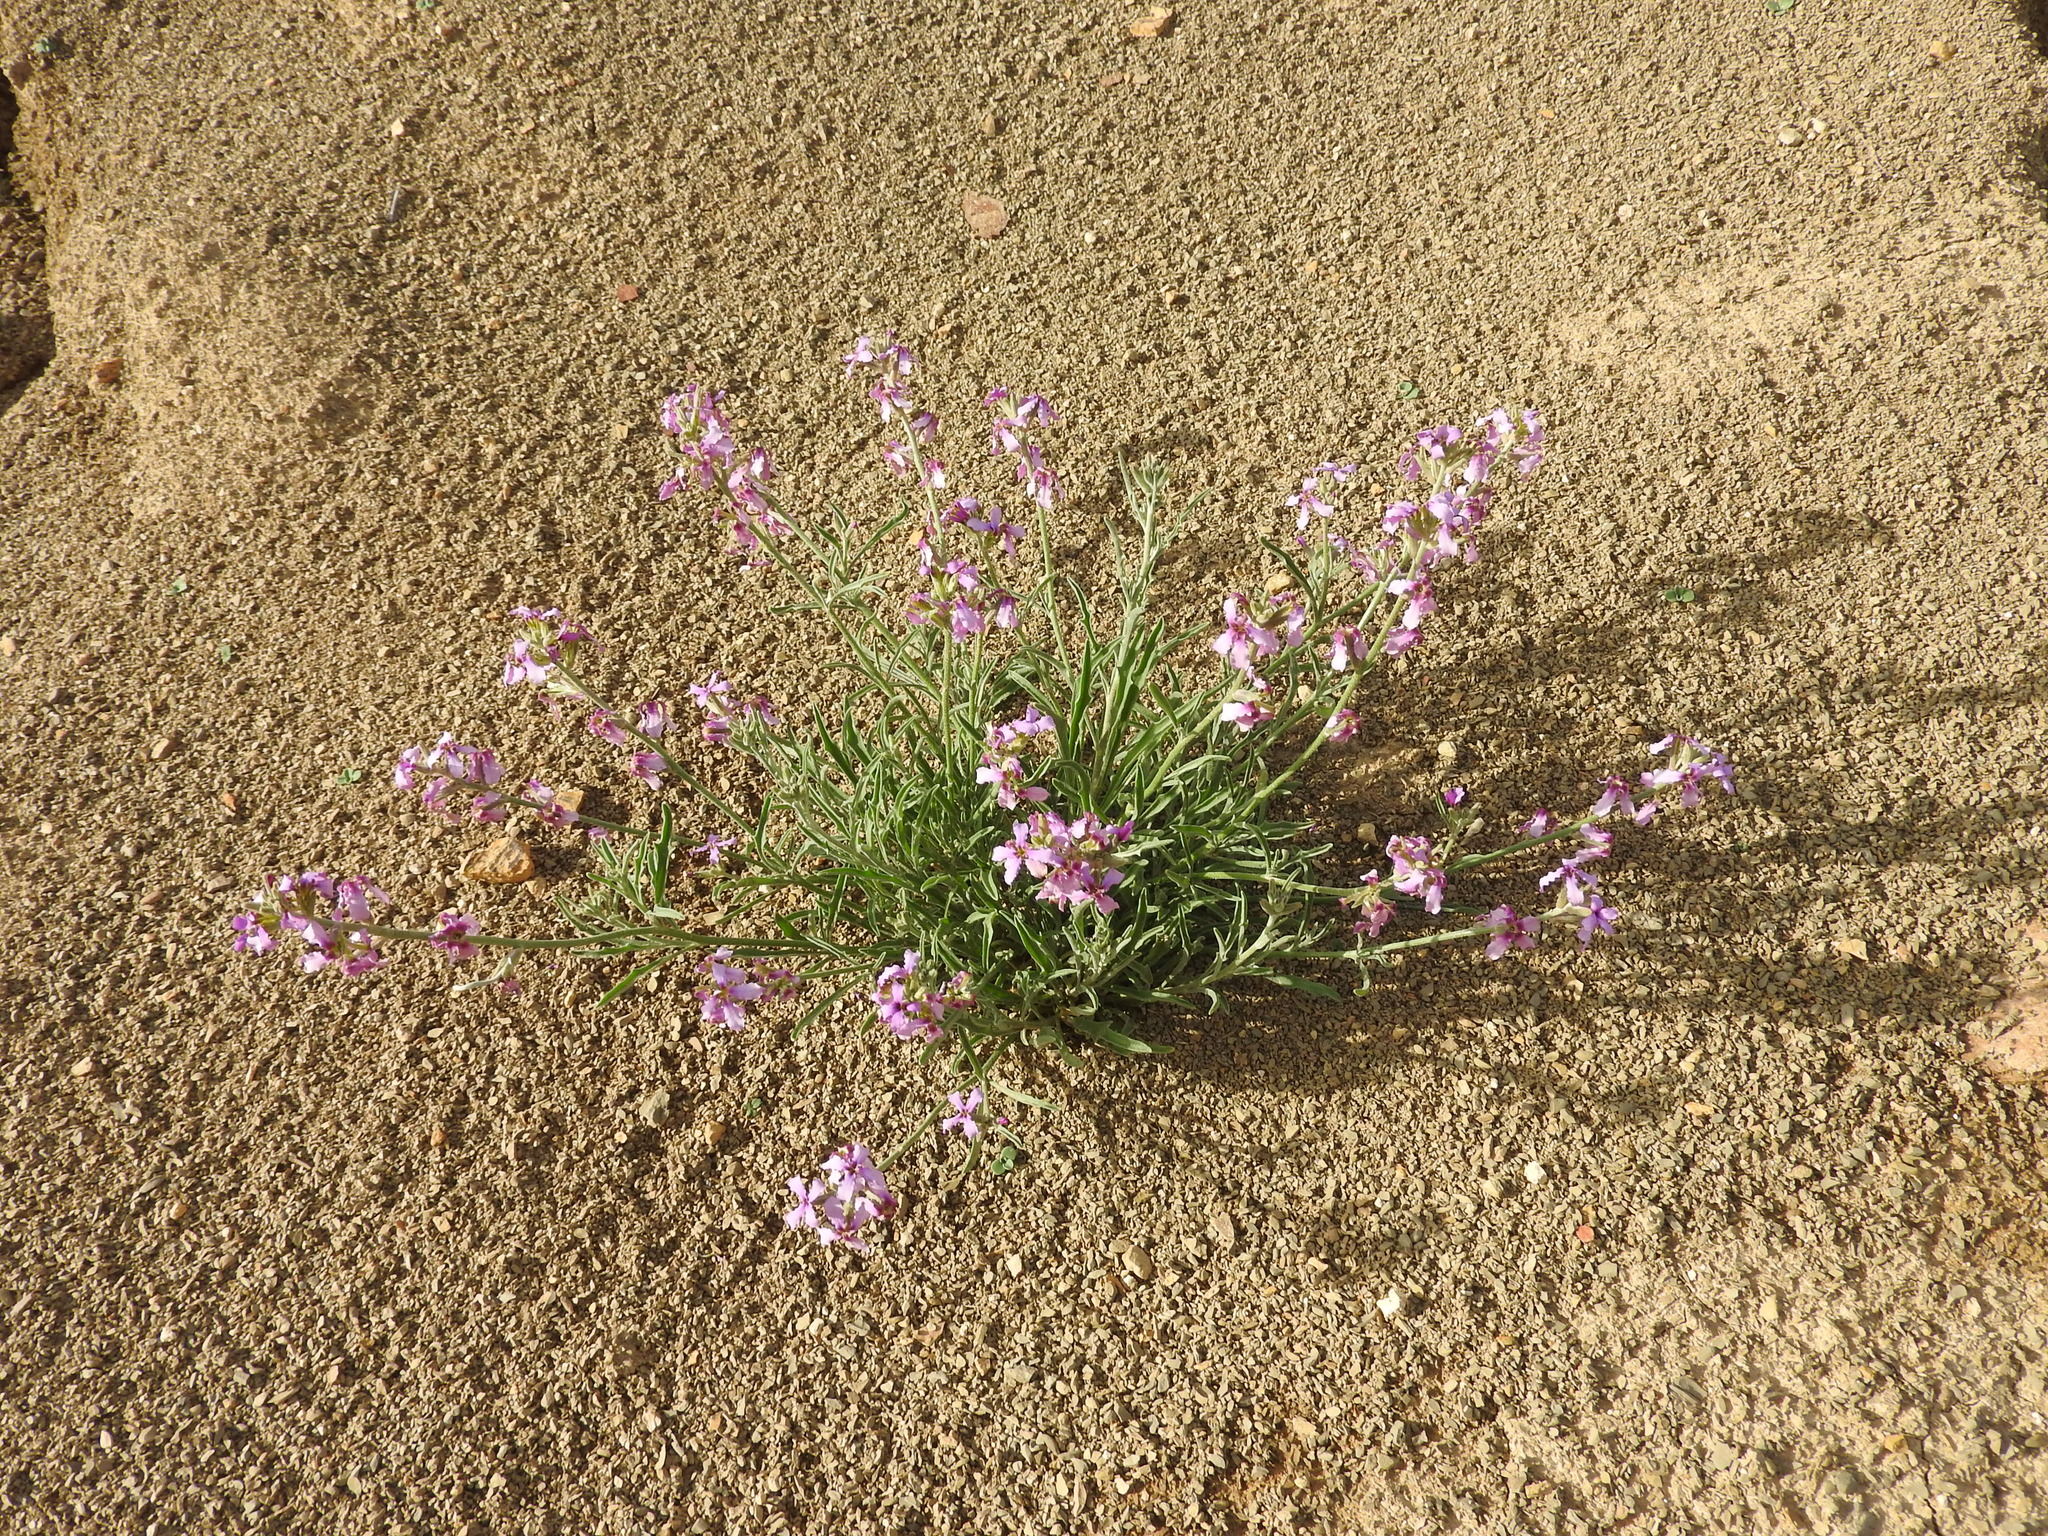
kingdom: Plantae
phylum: Tracheophyta
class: Magnoliopsida
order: Brassicales
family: Brassicaceae
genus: Matthiola
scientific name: Matthiola fruticulosa
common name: Sad stock
